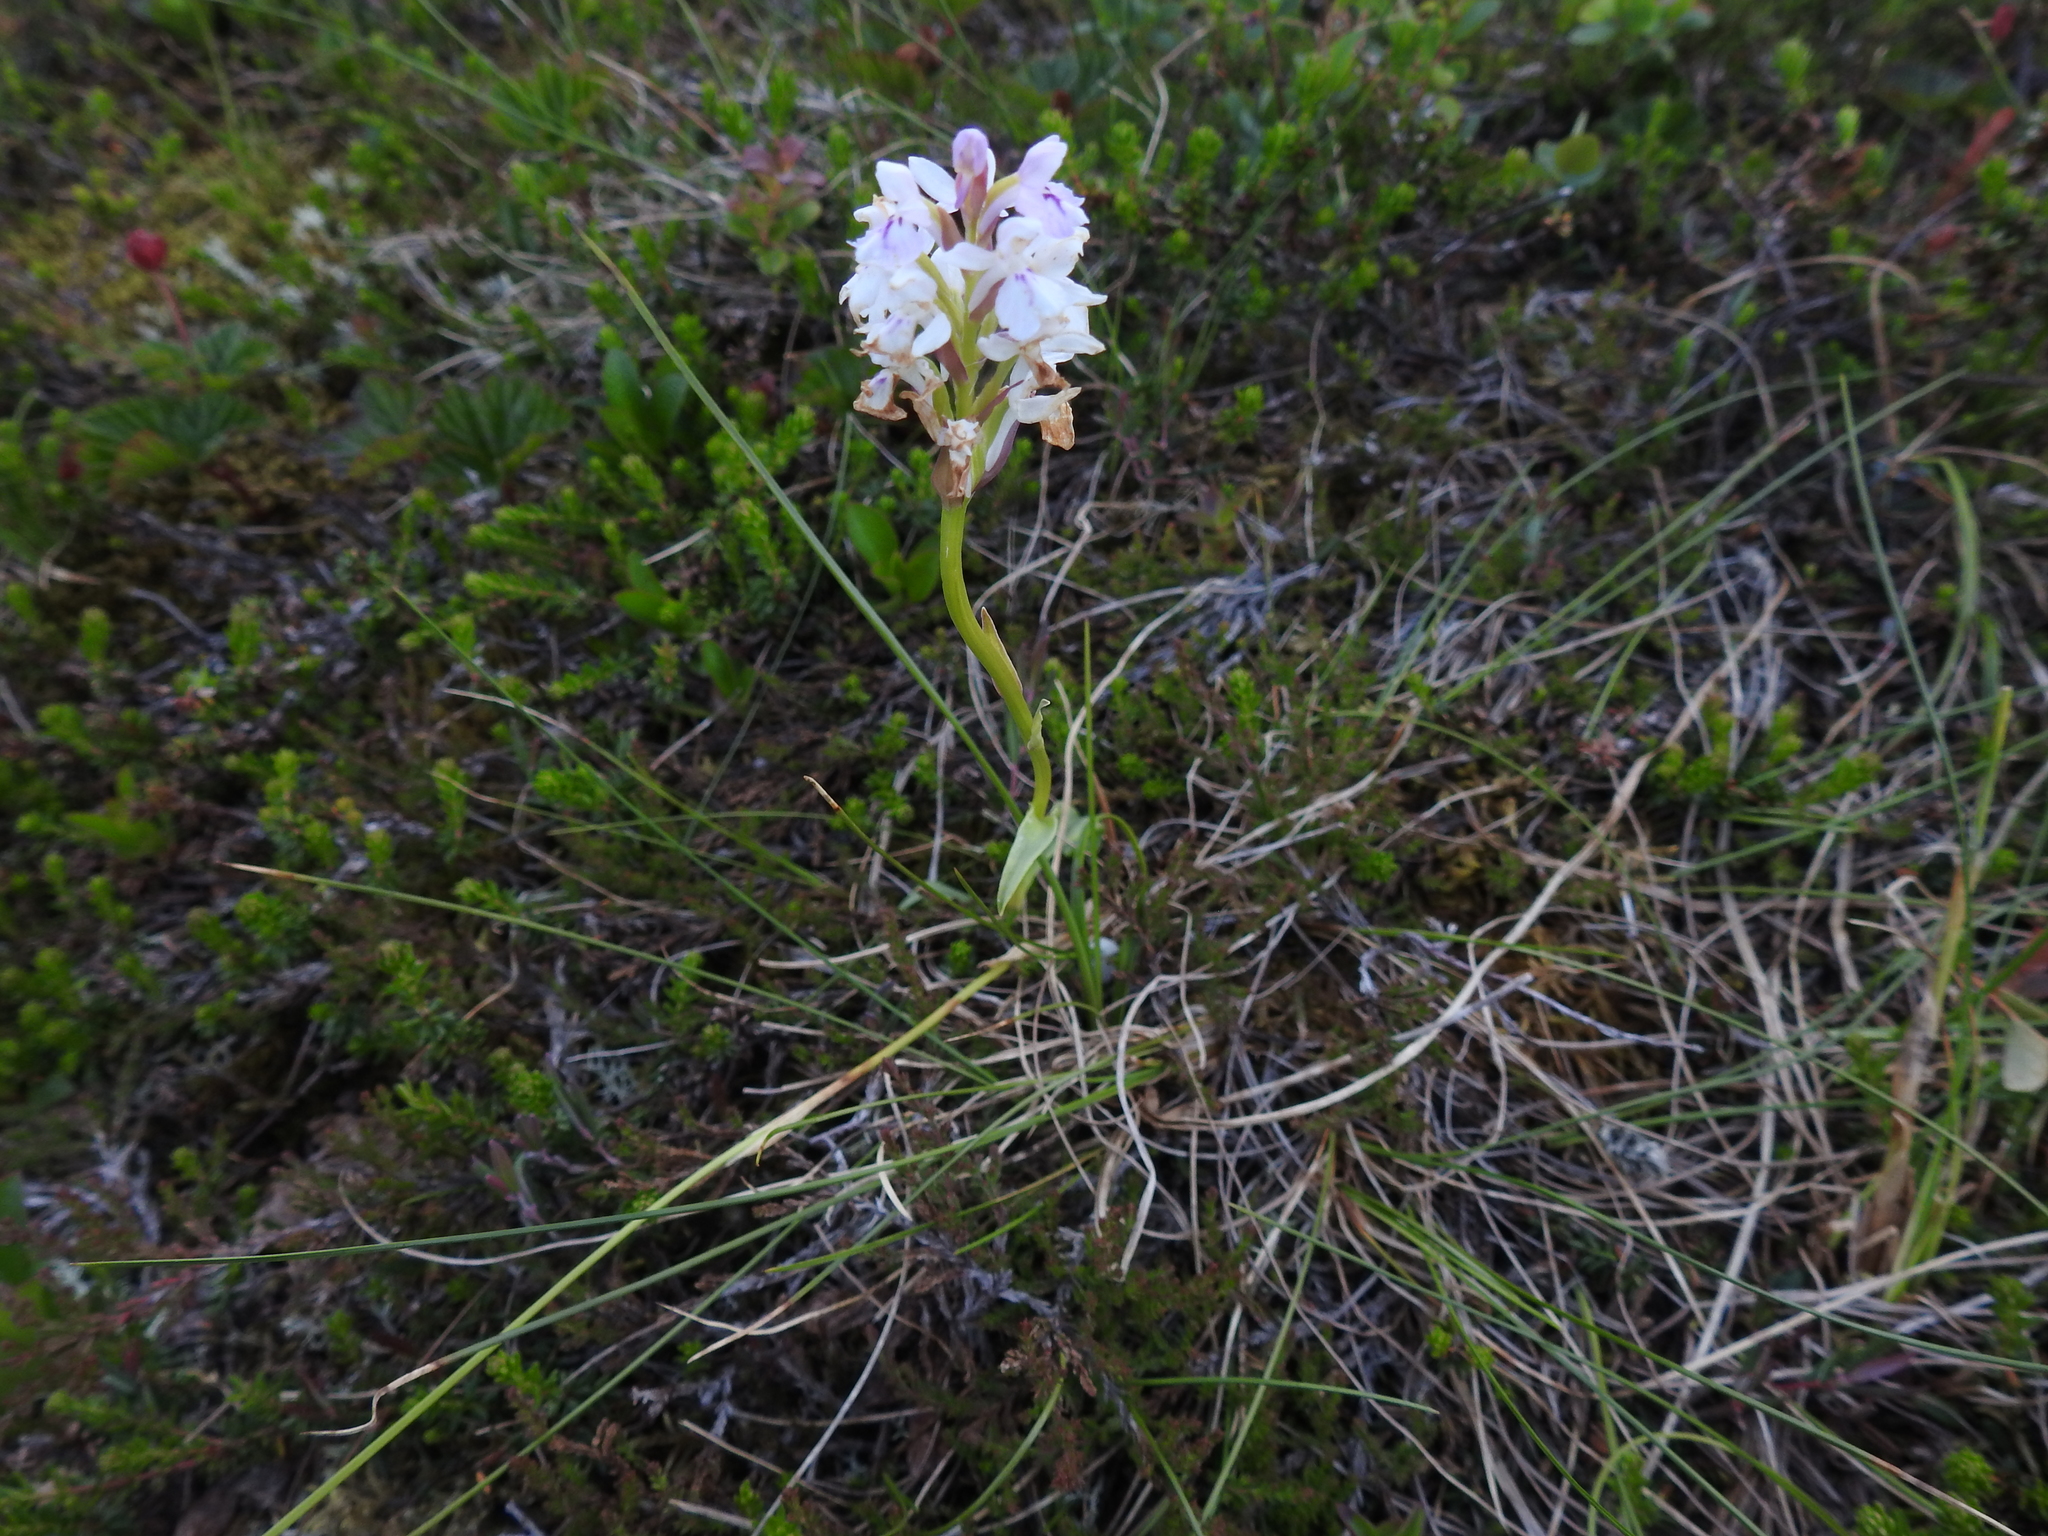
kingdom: Plantae
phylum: Tracheophyta
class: Liliopsida
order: Asparagales
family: Orchidaceae
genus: Dactylorhiza
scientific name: Dactylorhiza maculata
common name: Heath spotted-orchid
